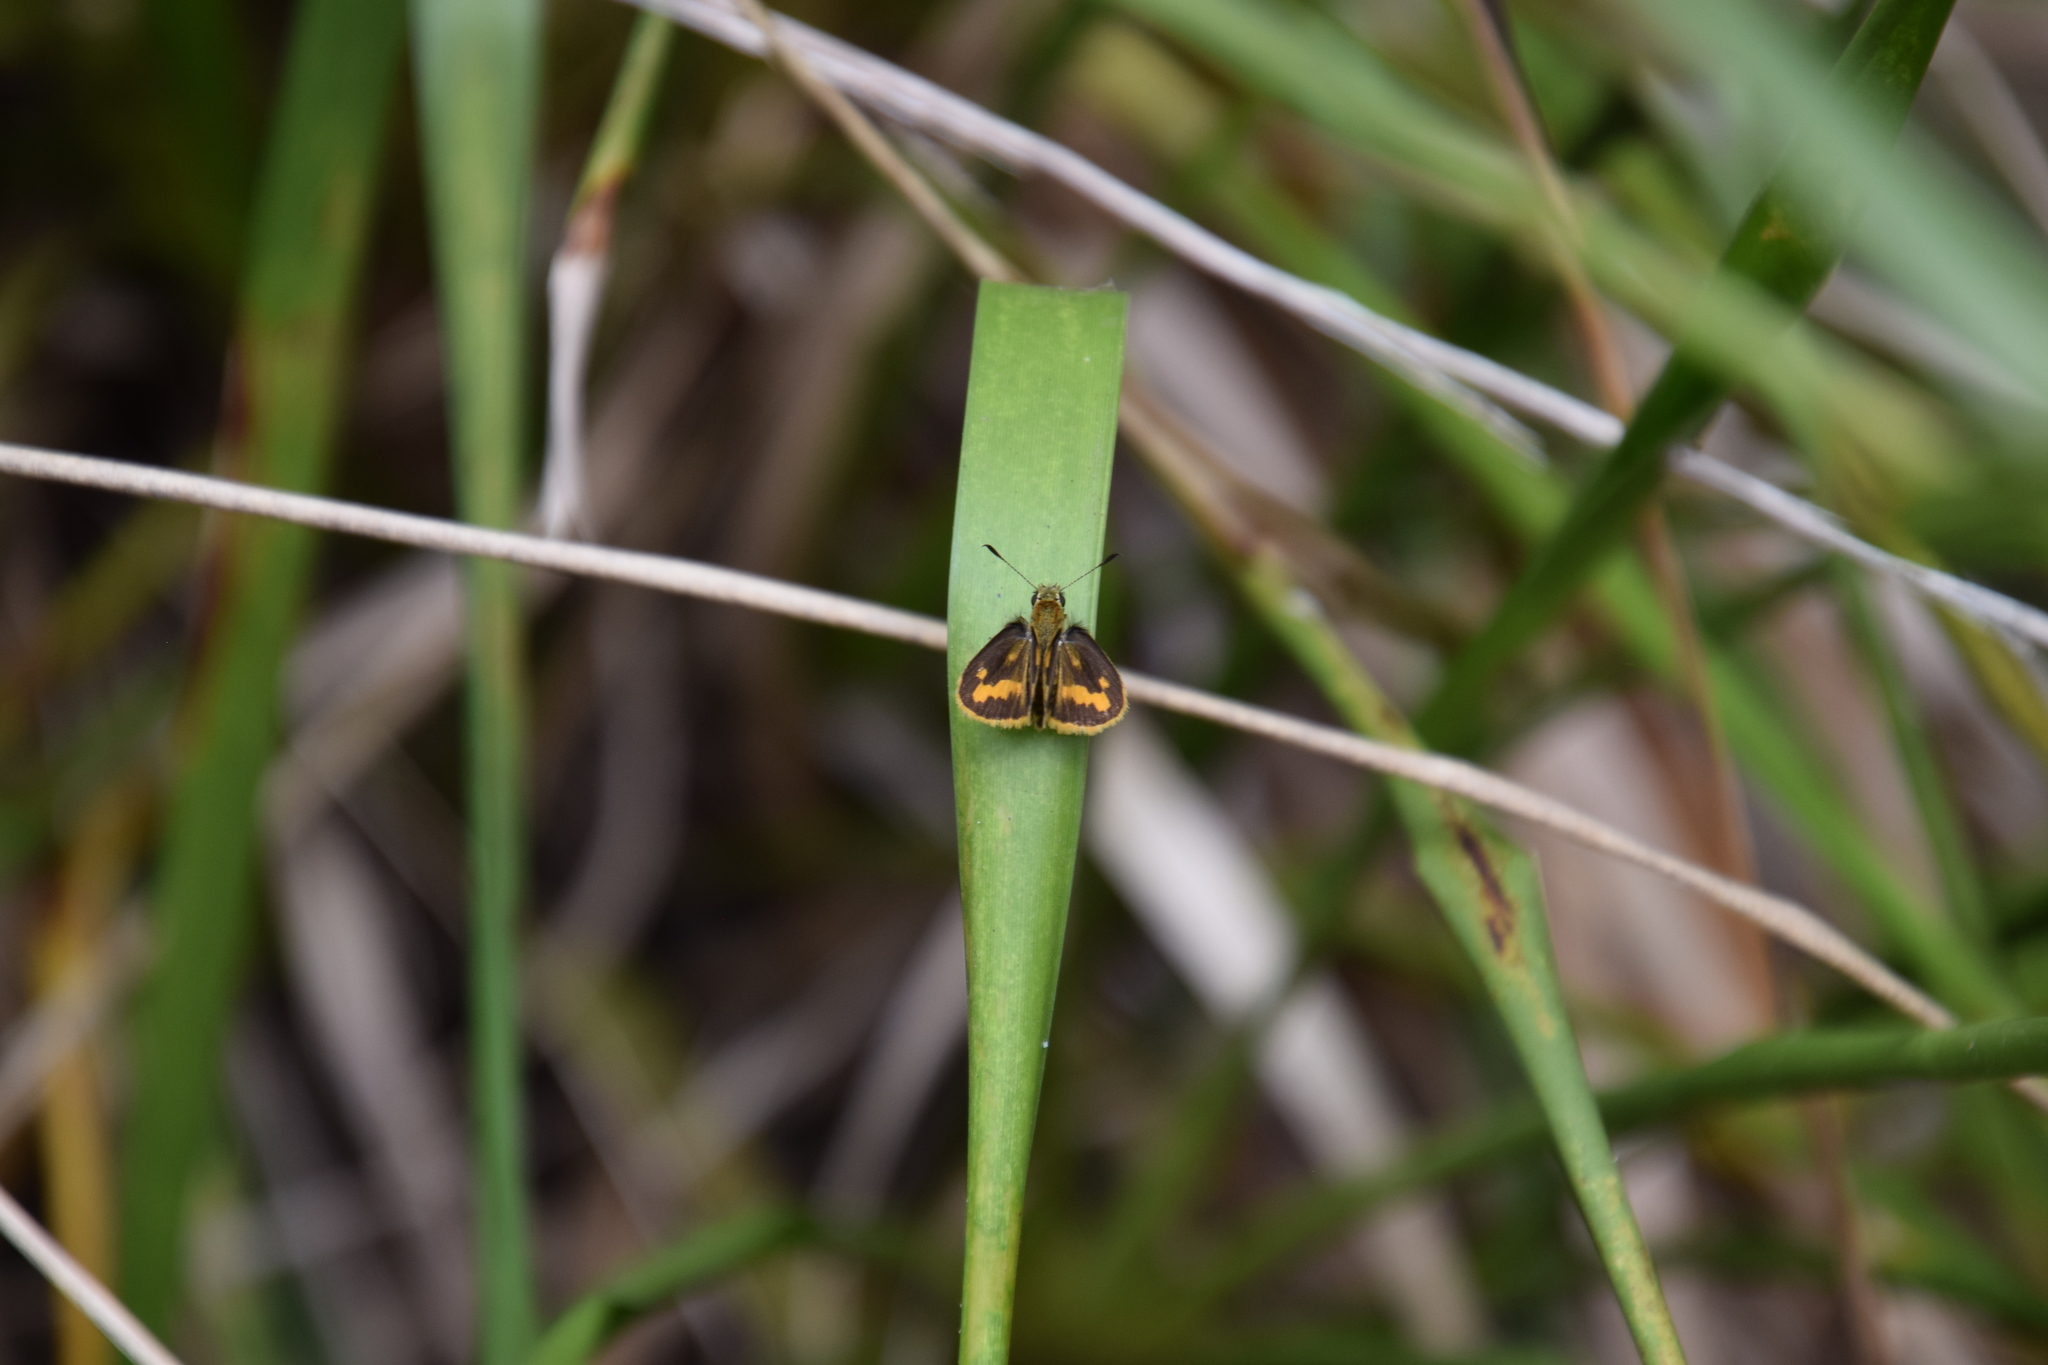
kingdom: Animalia
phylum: Arthropoda
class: Insecta
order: Lepidoptera
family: Hesperiidae
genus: Ocybadistes
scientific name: Ocybadistes walkeri
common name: Yellow-banded dart
